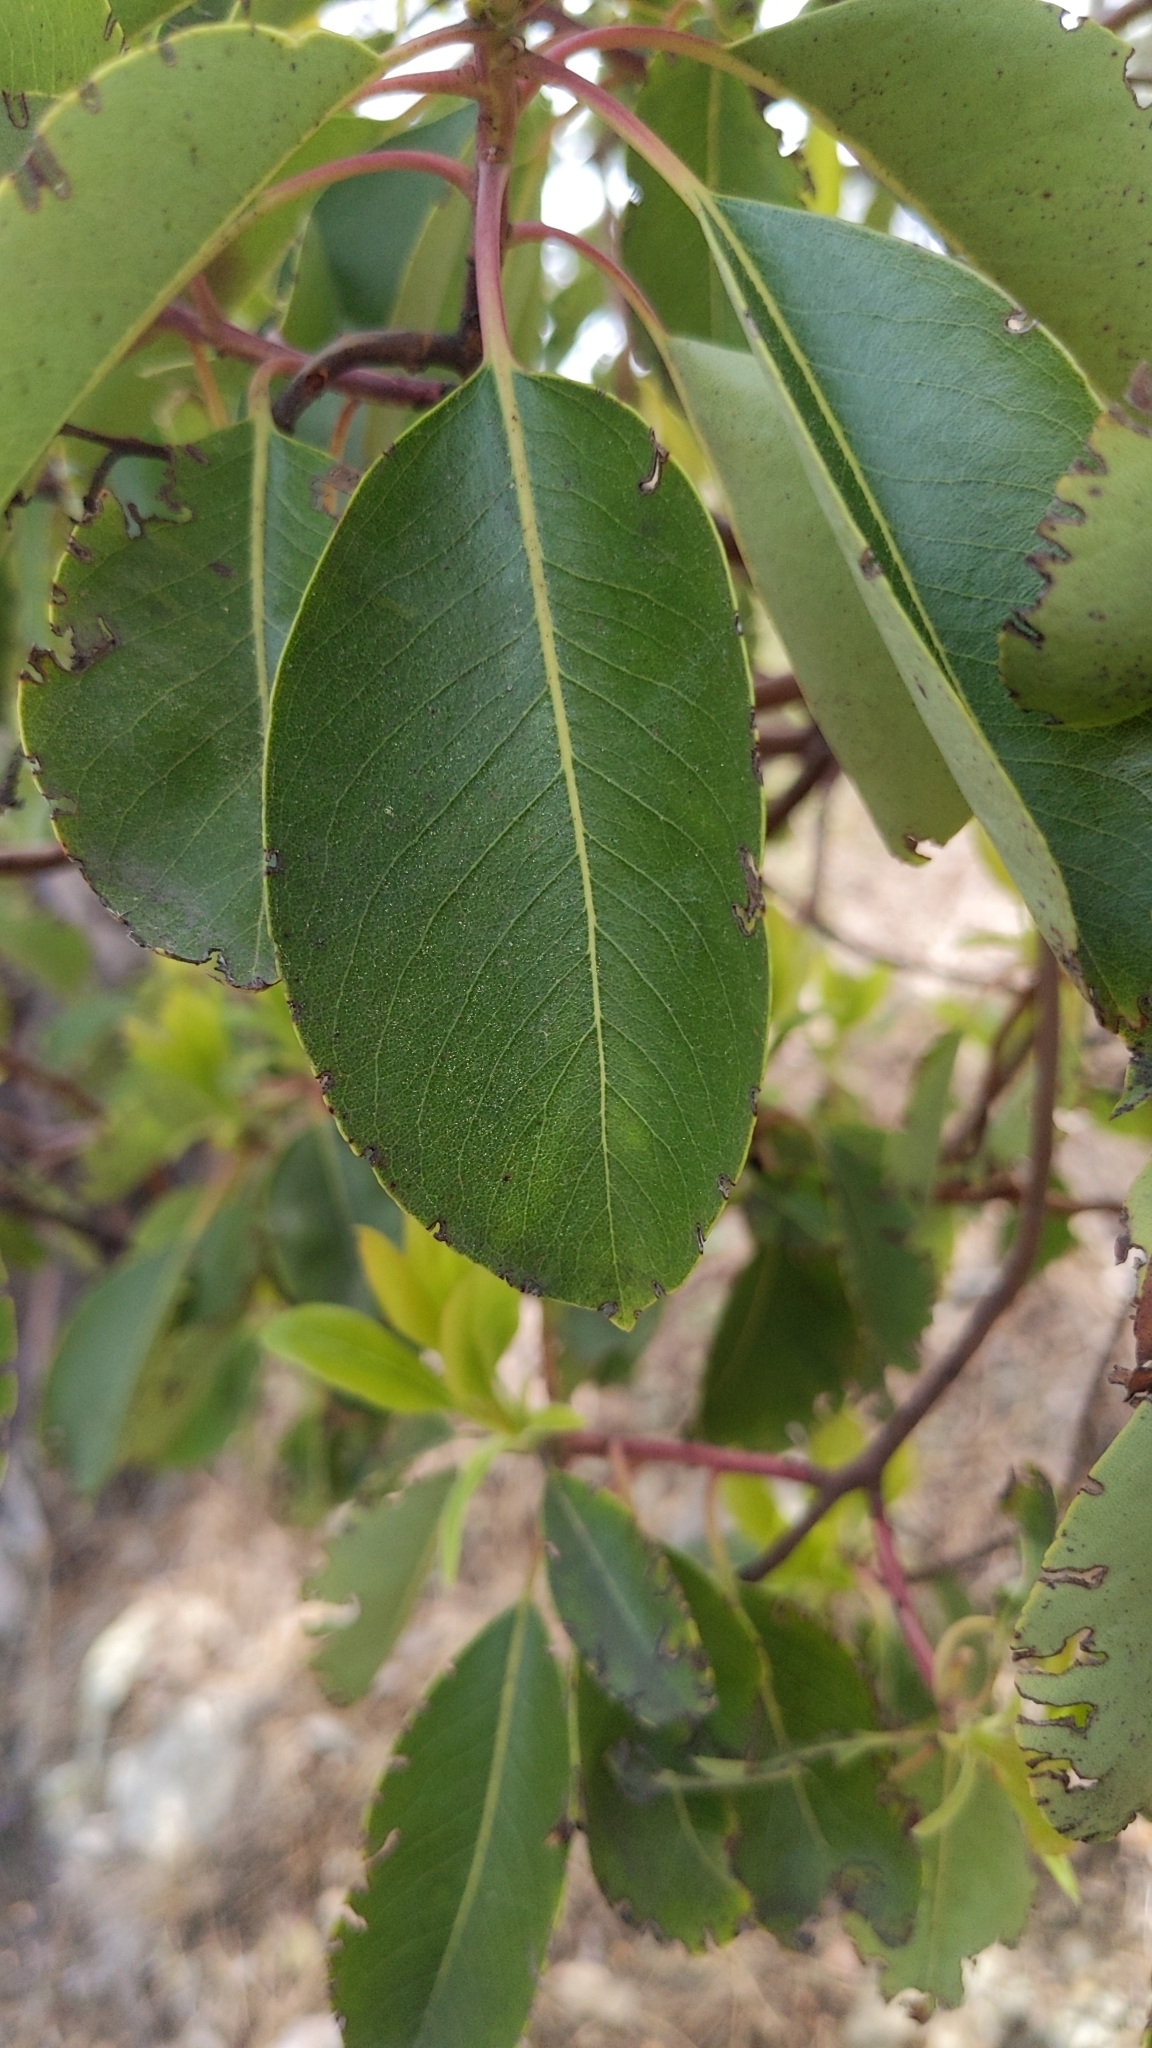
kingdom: Plantae
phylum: Tracheophyta
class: Magnoliopsida
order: Ericales
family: Ericaceae
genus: Arbutus
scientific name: Arbutus andrachne
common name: Greek strawberry tree
